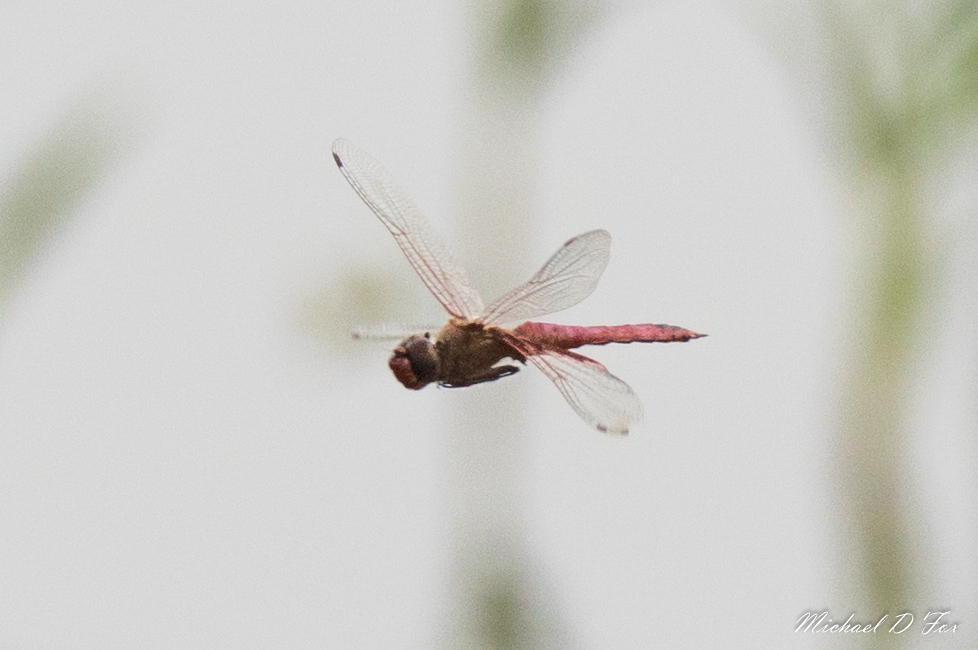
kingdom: Animalia
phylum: Arthropoda
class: Insecta
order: Odonata
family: Libellulidae
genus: Tramea
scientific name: Tramea onusta
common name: Red saddlebags
